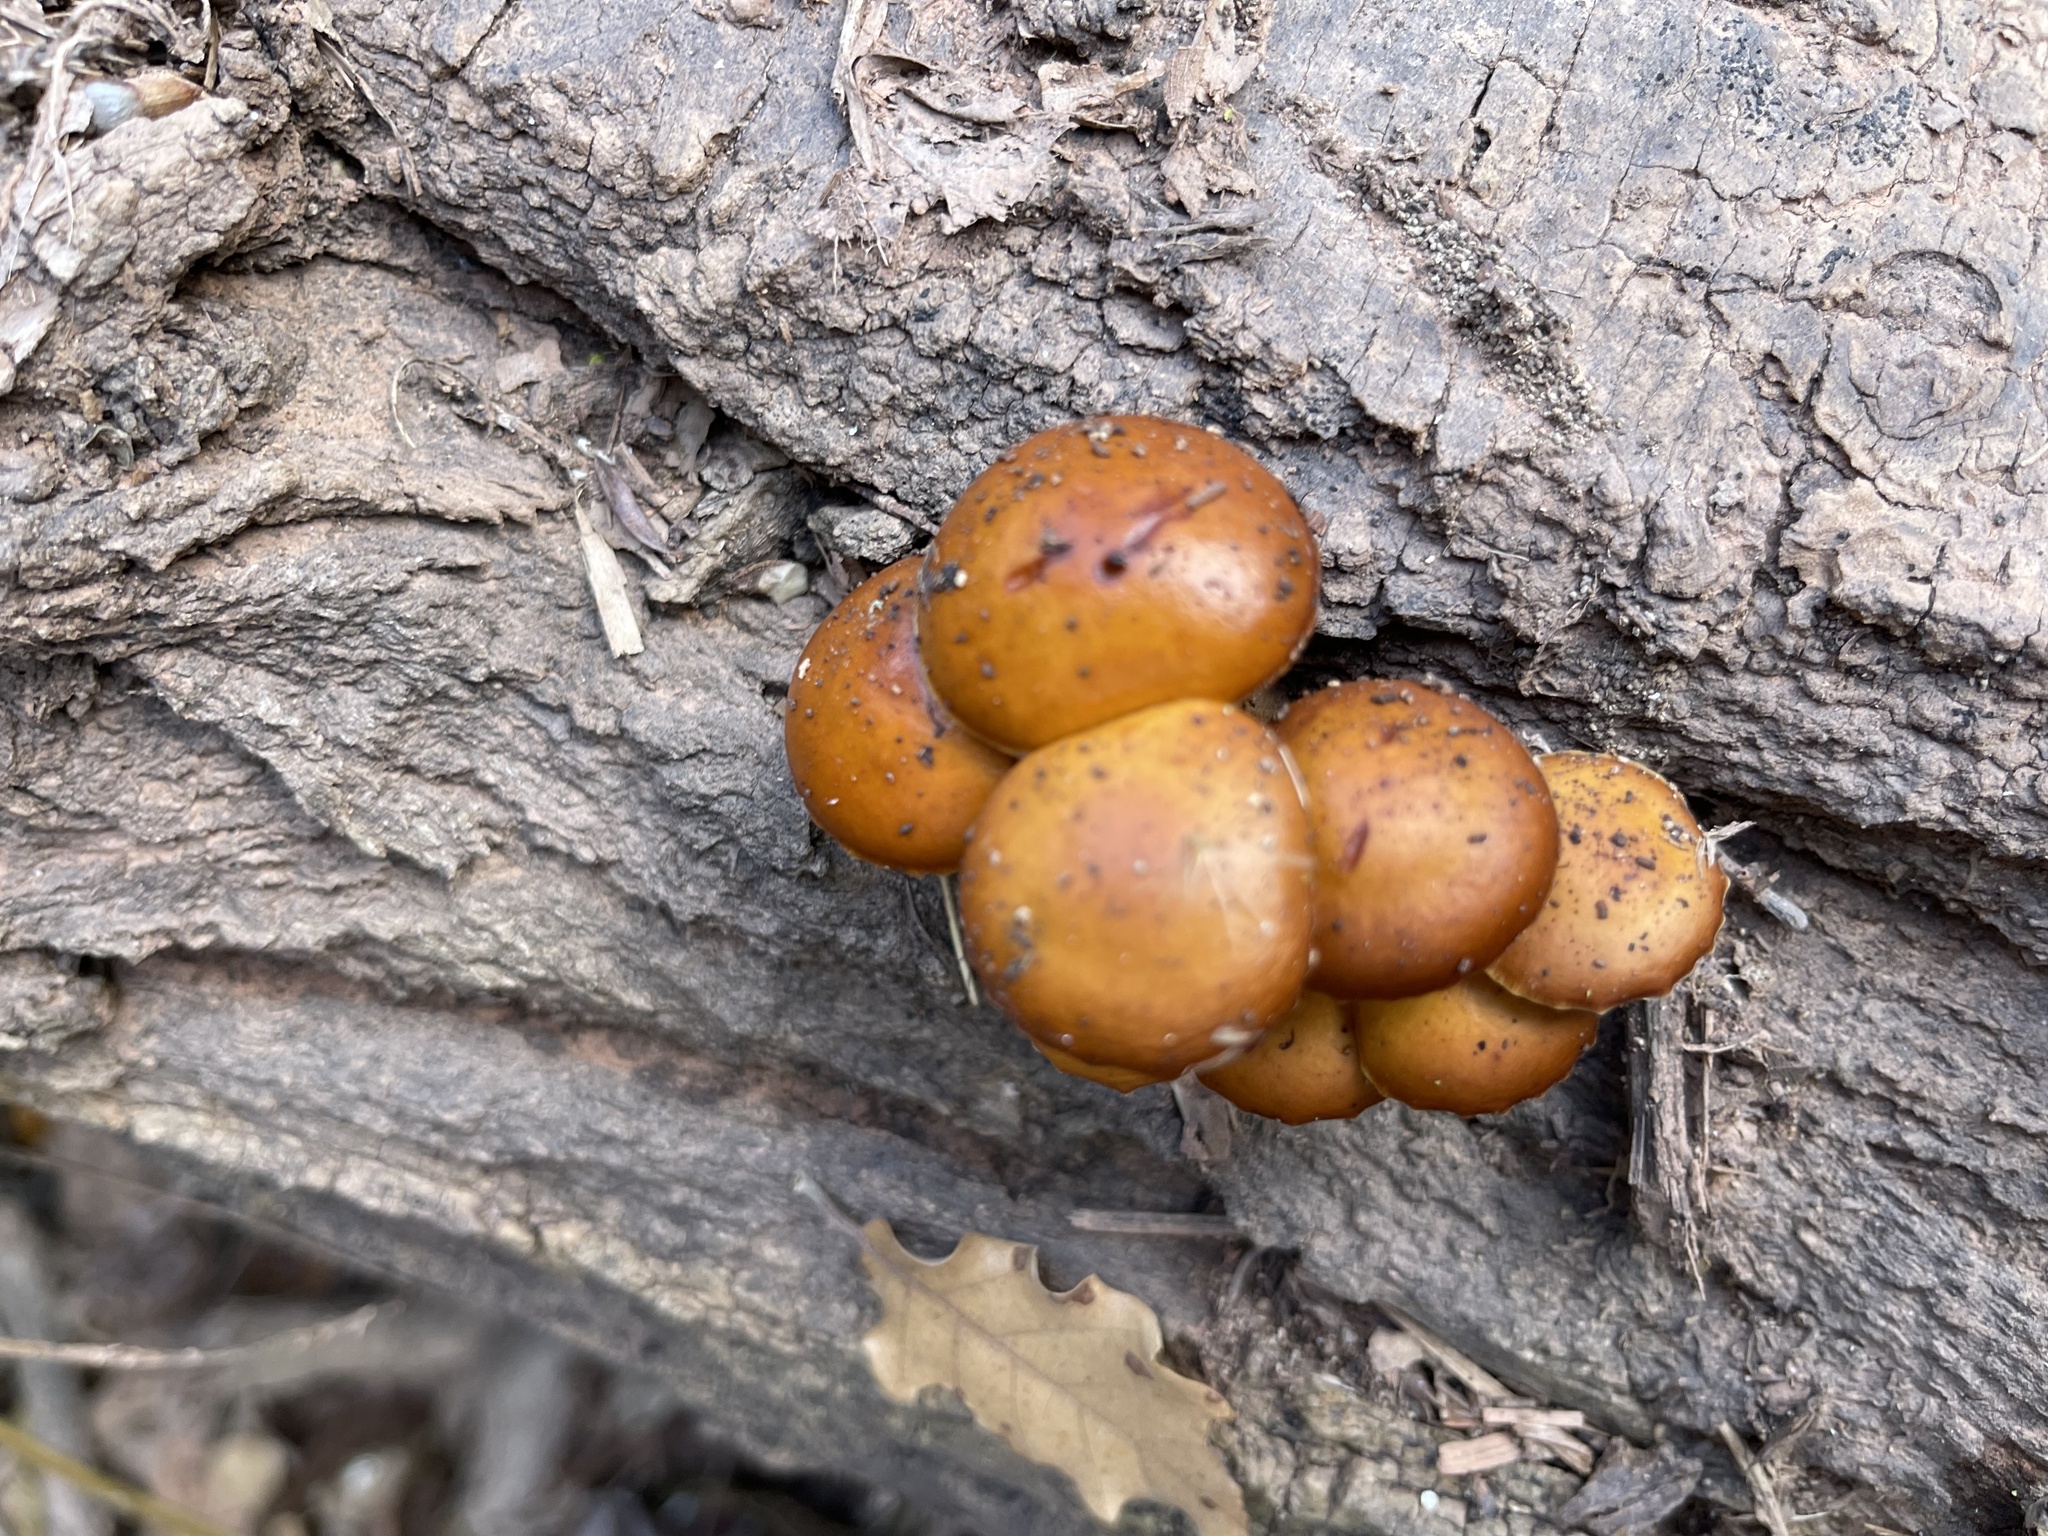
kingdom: Fungi
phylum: Basidiomycota
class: Agaricomycetes
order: Agaricales
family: Physalacriaceae
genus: Flammulina
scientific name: Flammulina
